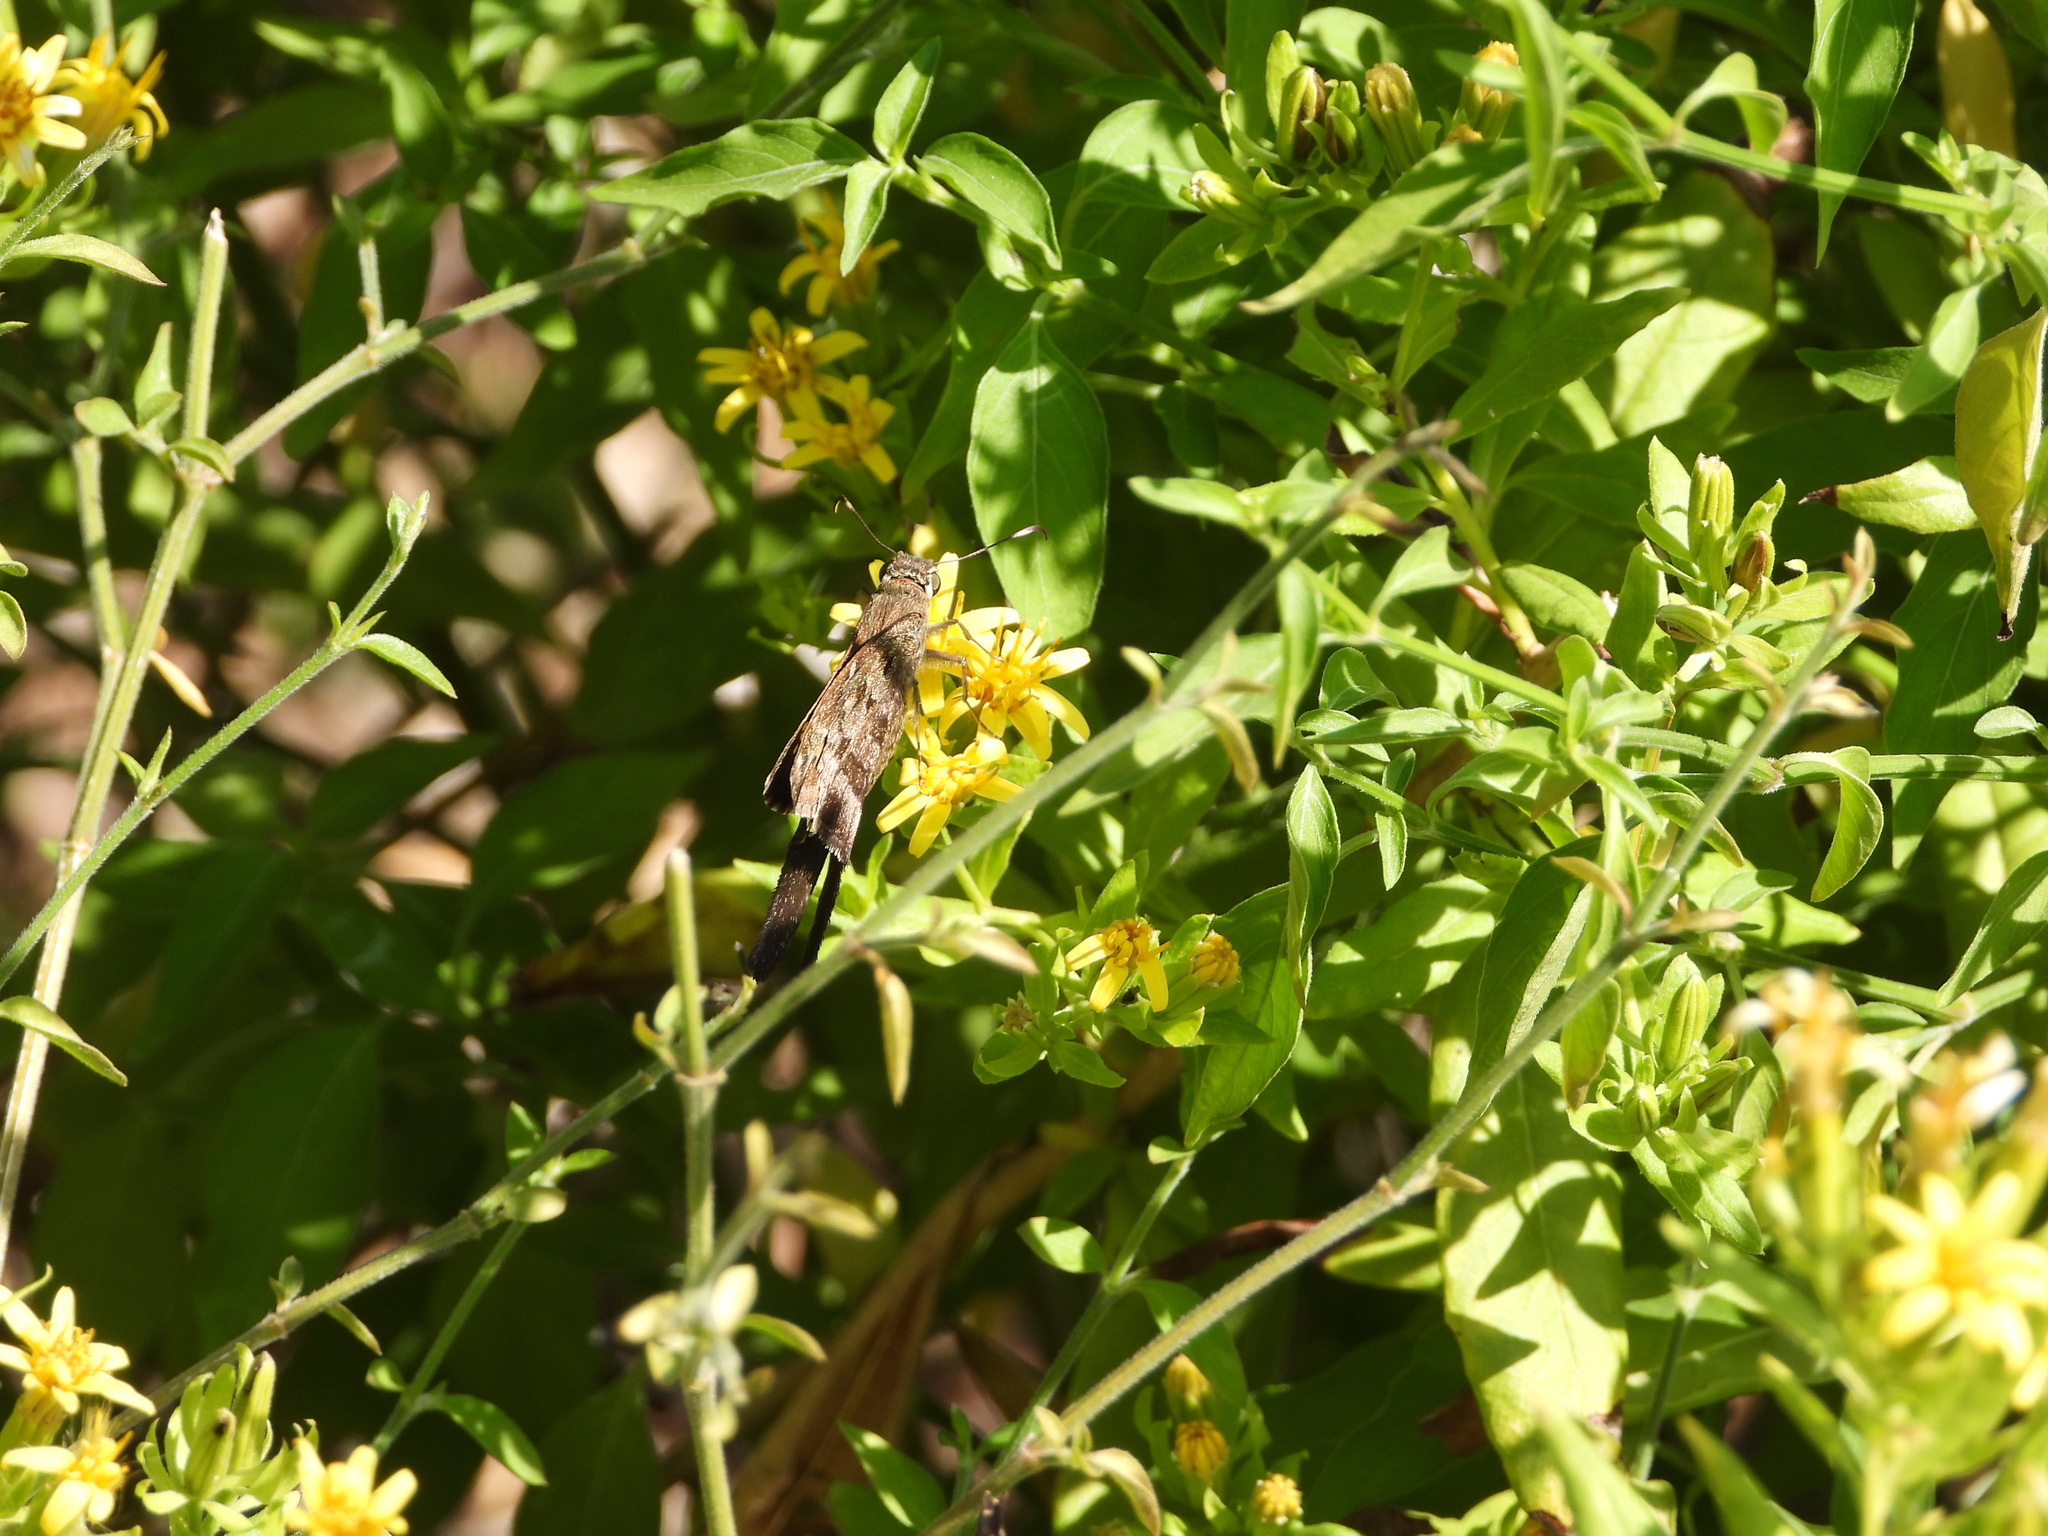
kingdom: Animalia
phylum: Arthropoda
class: Insecta
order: Lepidoptera
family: Hesperiidae
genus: Thorybes
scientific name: Thorybes
